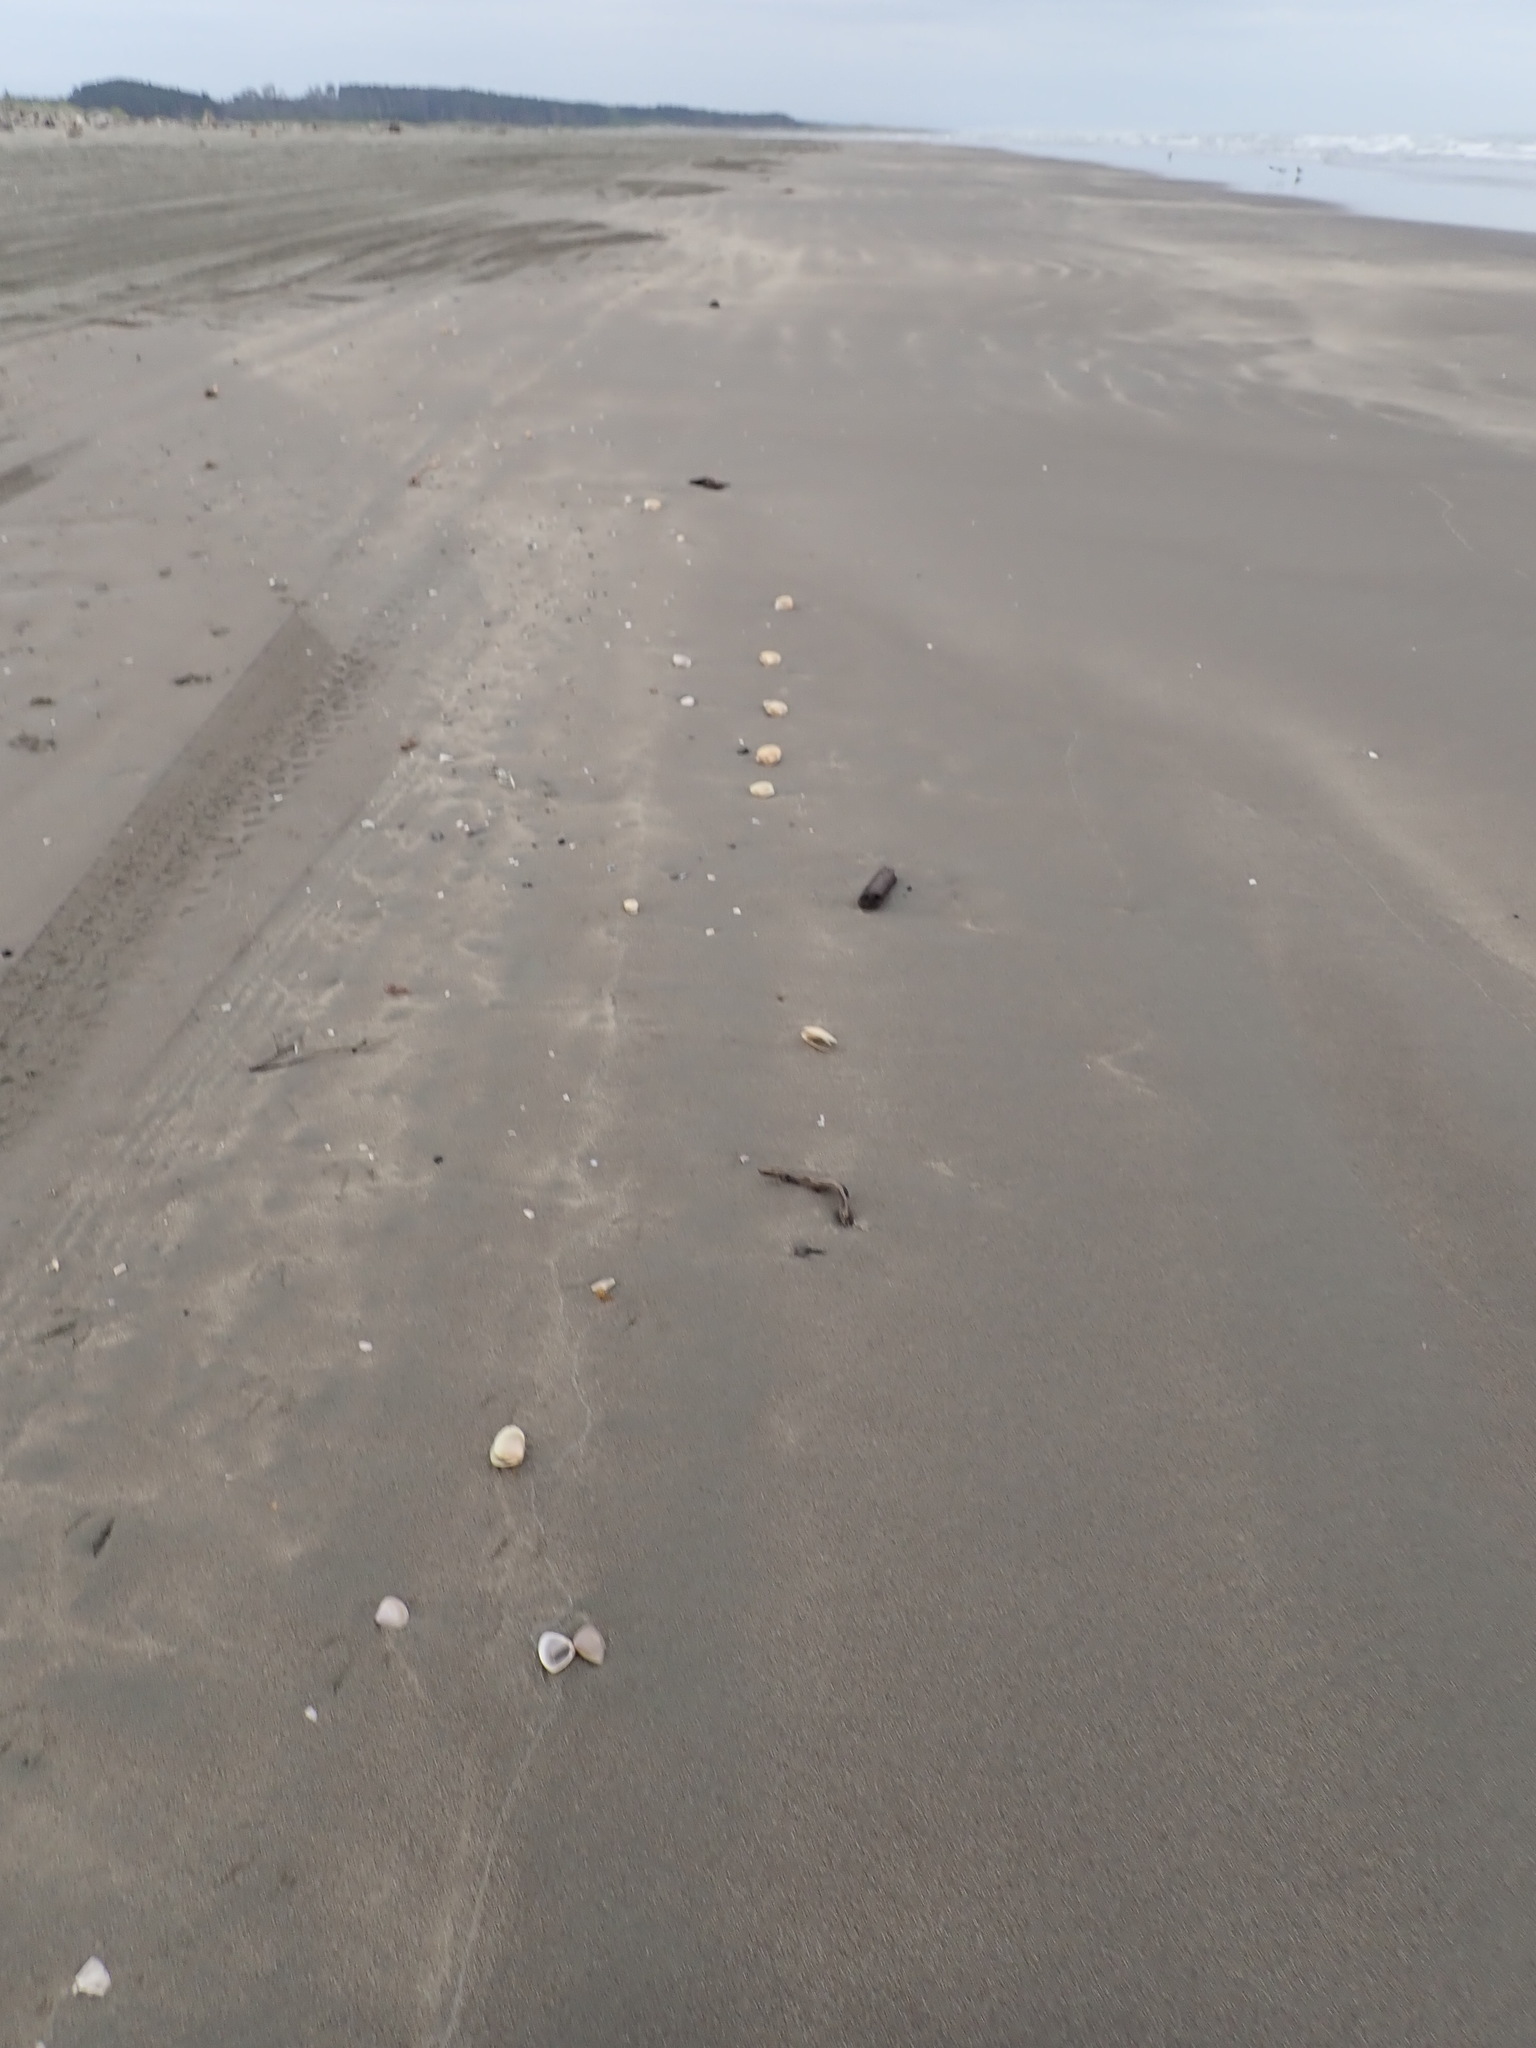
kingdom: Animalia
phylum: Mollusca
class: Bivalvia
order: Venerida
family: Mesodesmatidae
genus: Paphies
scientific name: Paphies donacina
